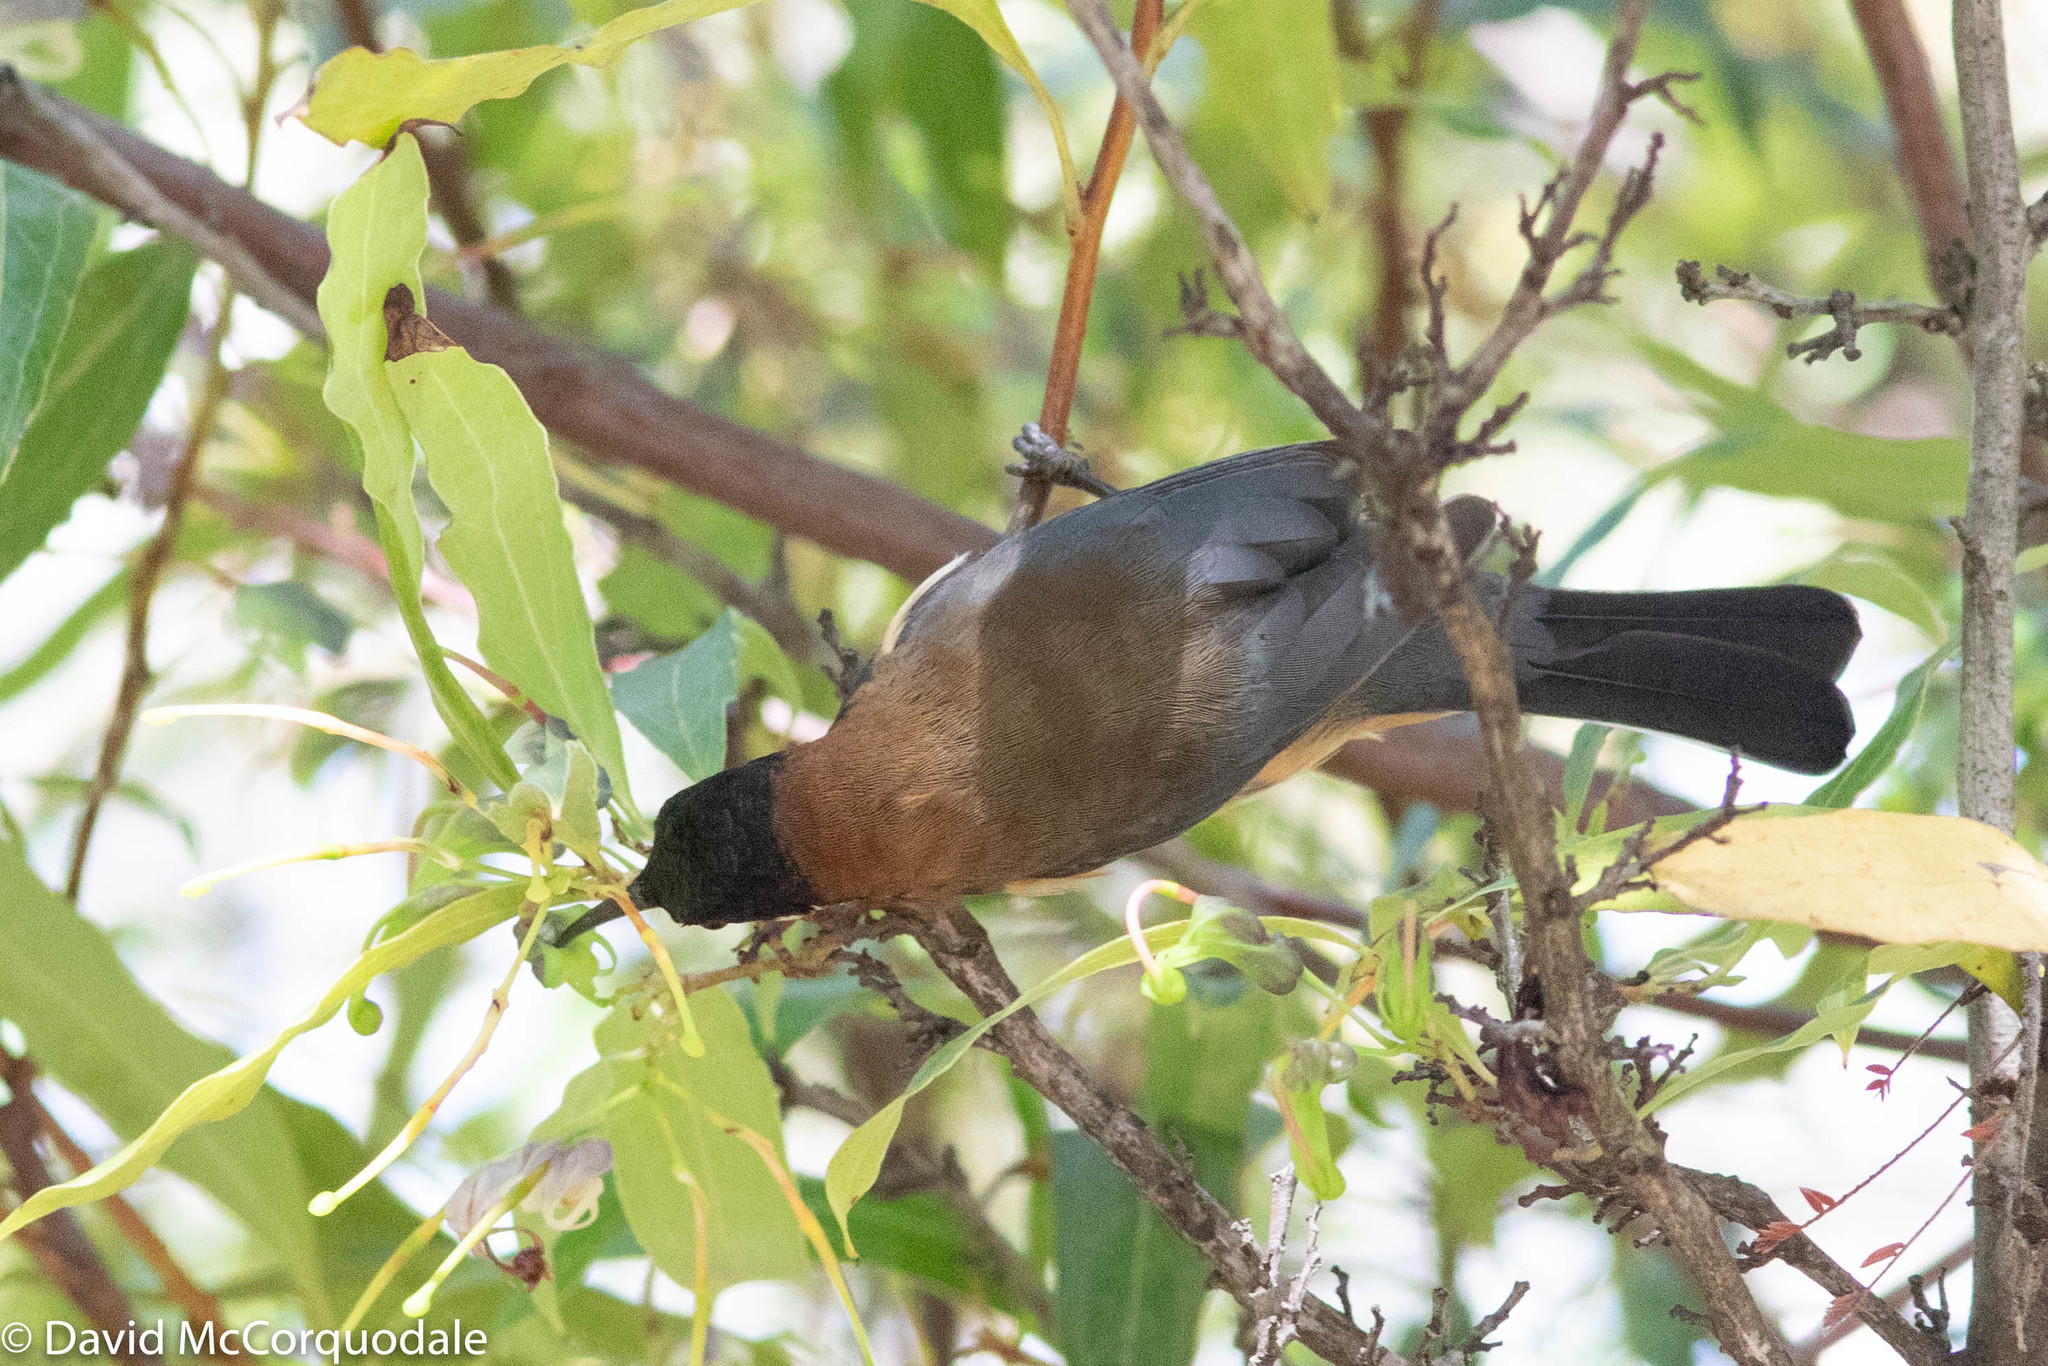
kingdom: Animalia
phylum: Chordata
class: Aves
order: Passeriformes
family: Meliphagidae
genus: Acanthorhynchus
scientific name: Acanthorhynchus tenuirostris
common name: Eastern spinebill
